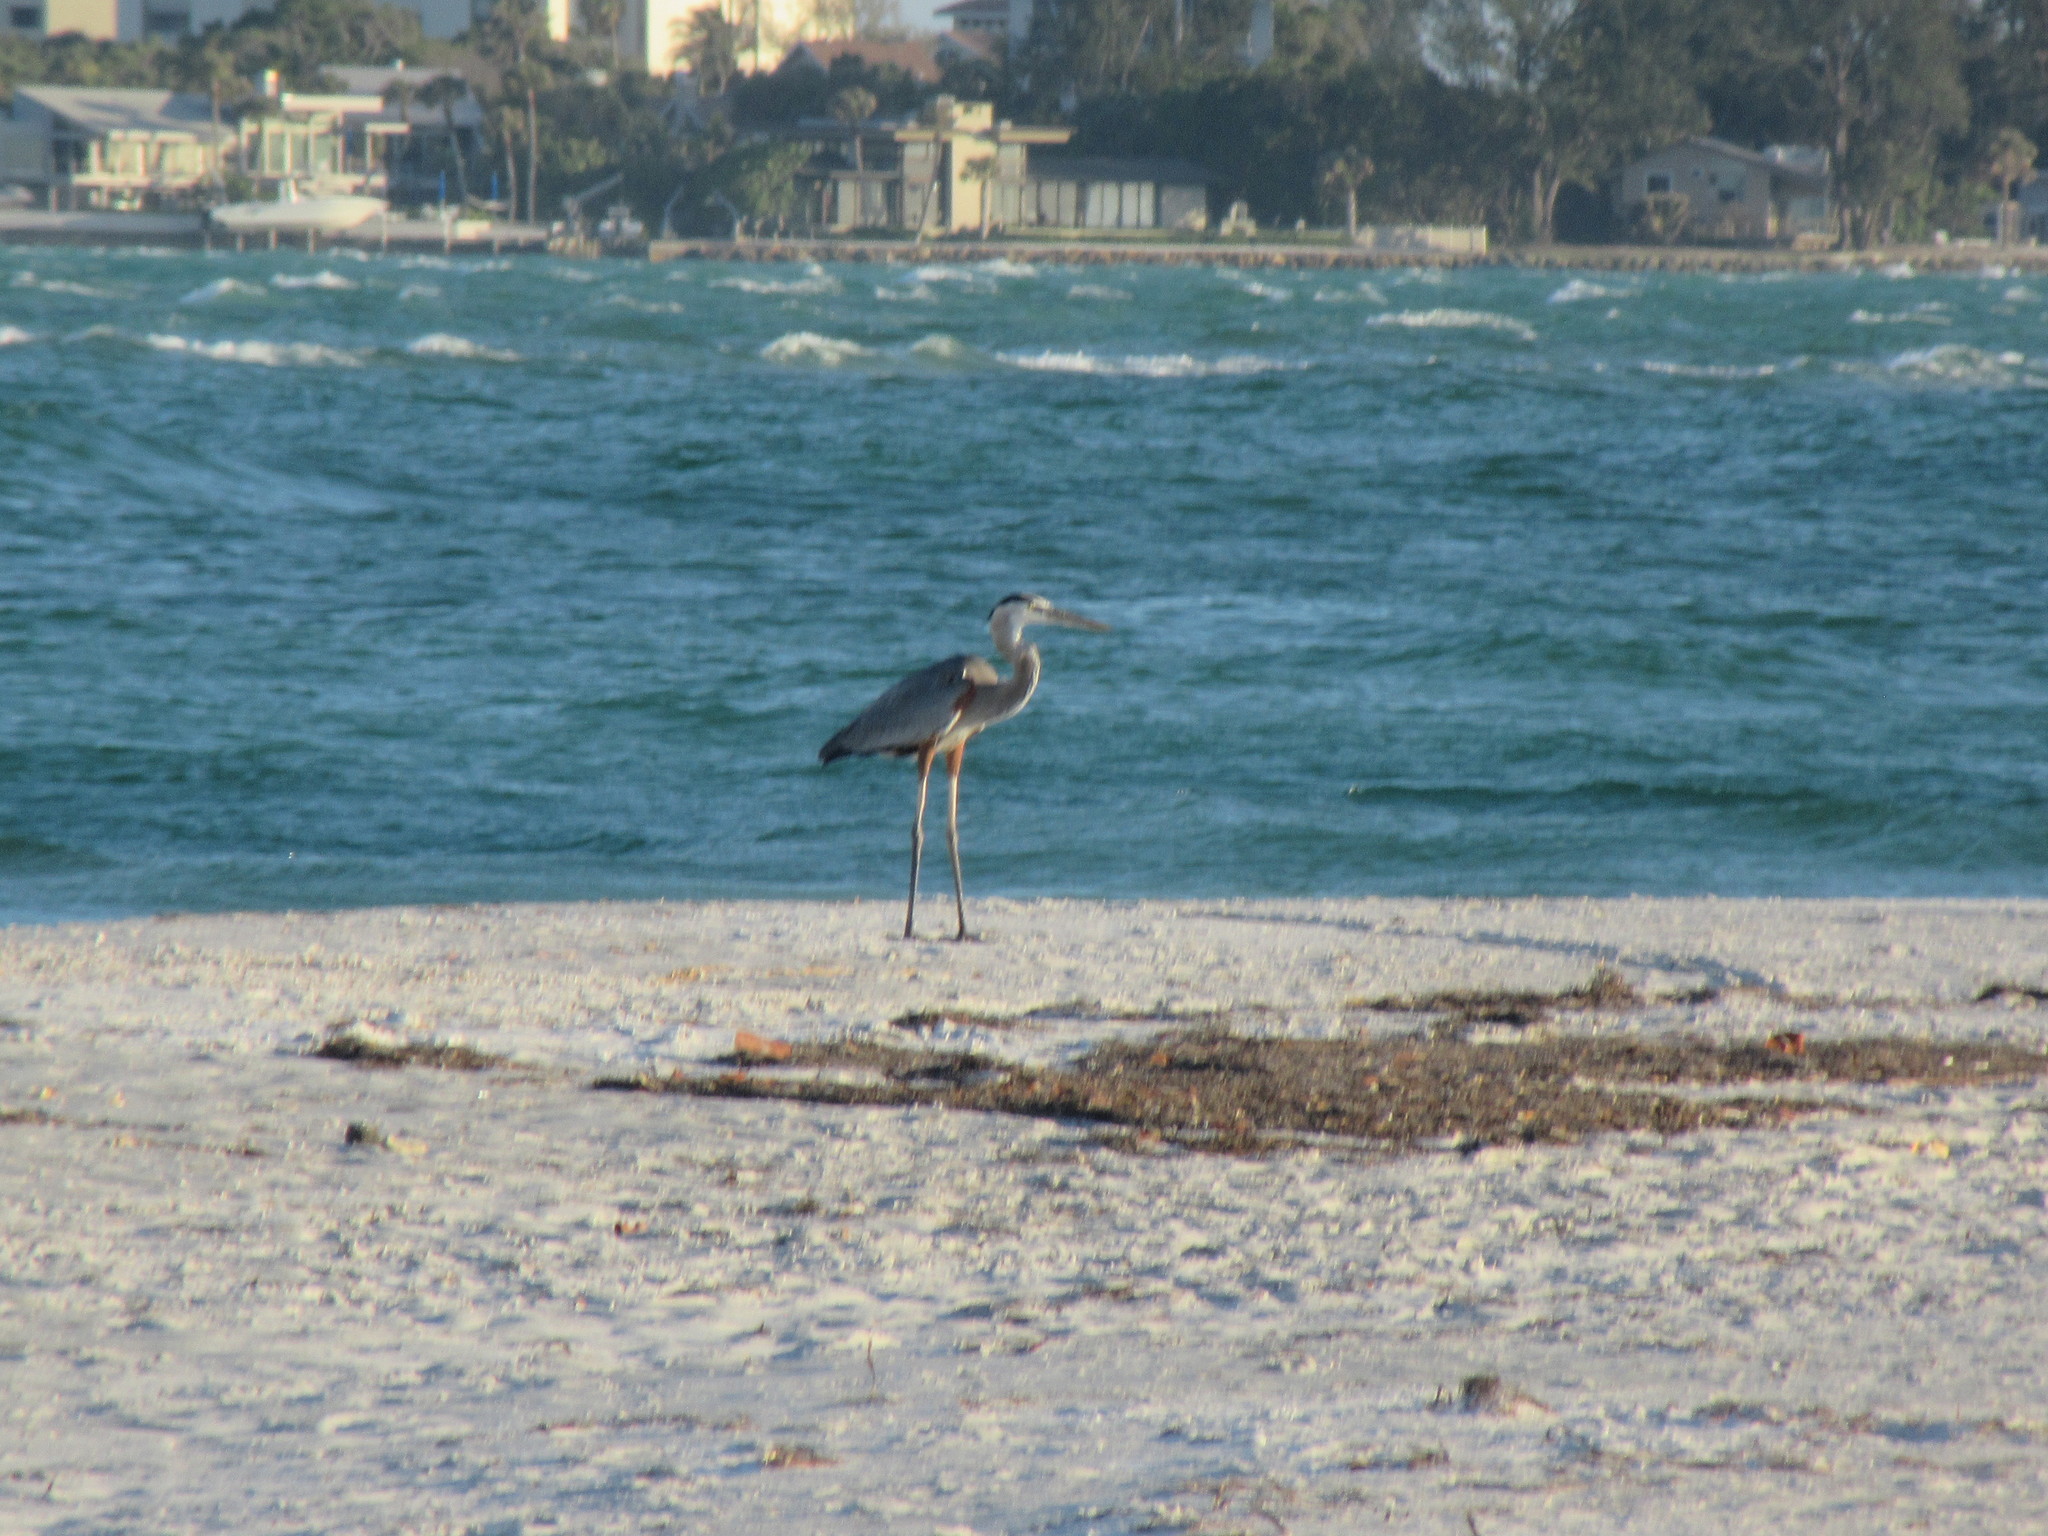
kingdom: Animalia
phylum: Chordata
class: Aves
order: Pelecaniformes
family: Ardeidae
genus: Ardea
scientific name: Ardea herodias
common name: Great blue heron
